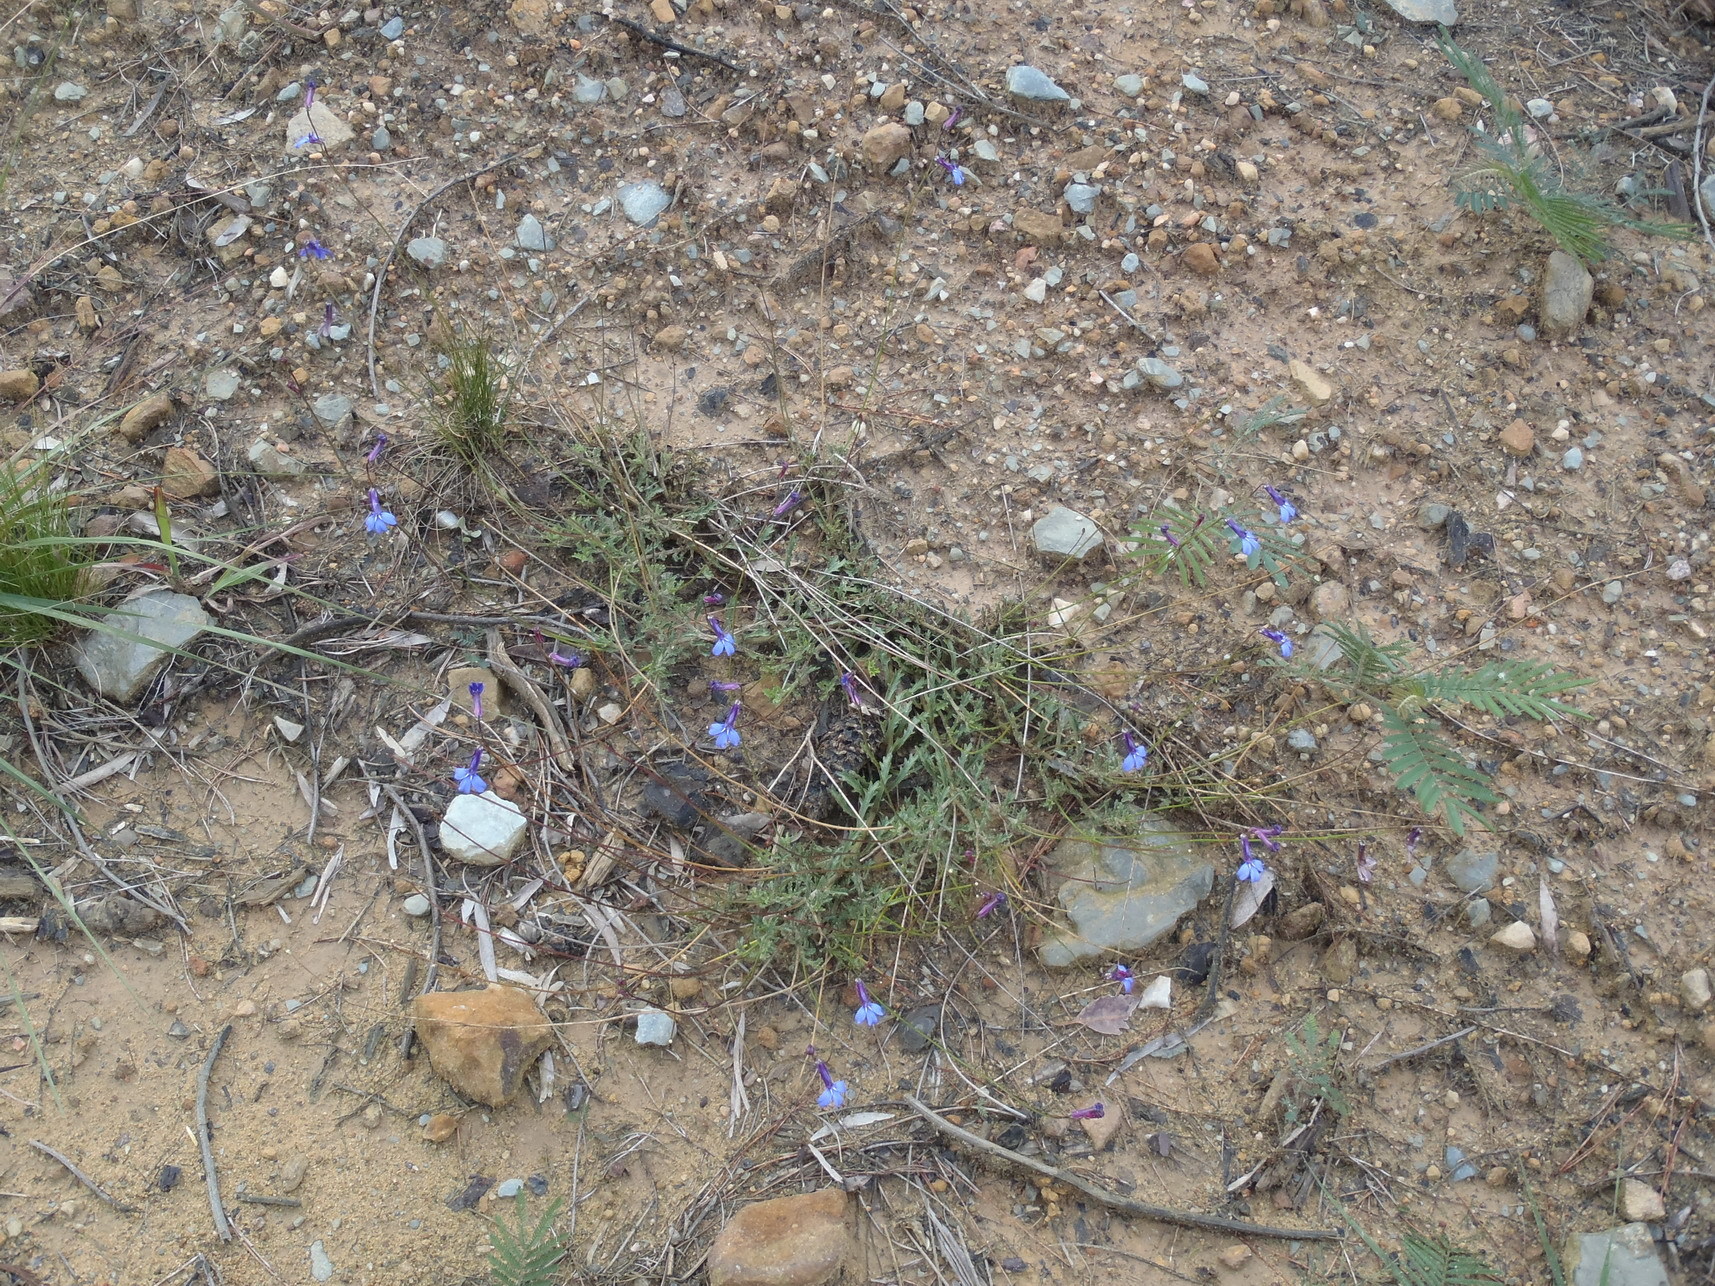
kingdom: Plantae
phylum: Tracheophyta
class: Magnoliopsida
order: Asterales
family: Campanulaceae
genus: Lobelia
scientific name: Lobelia tomentosa
